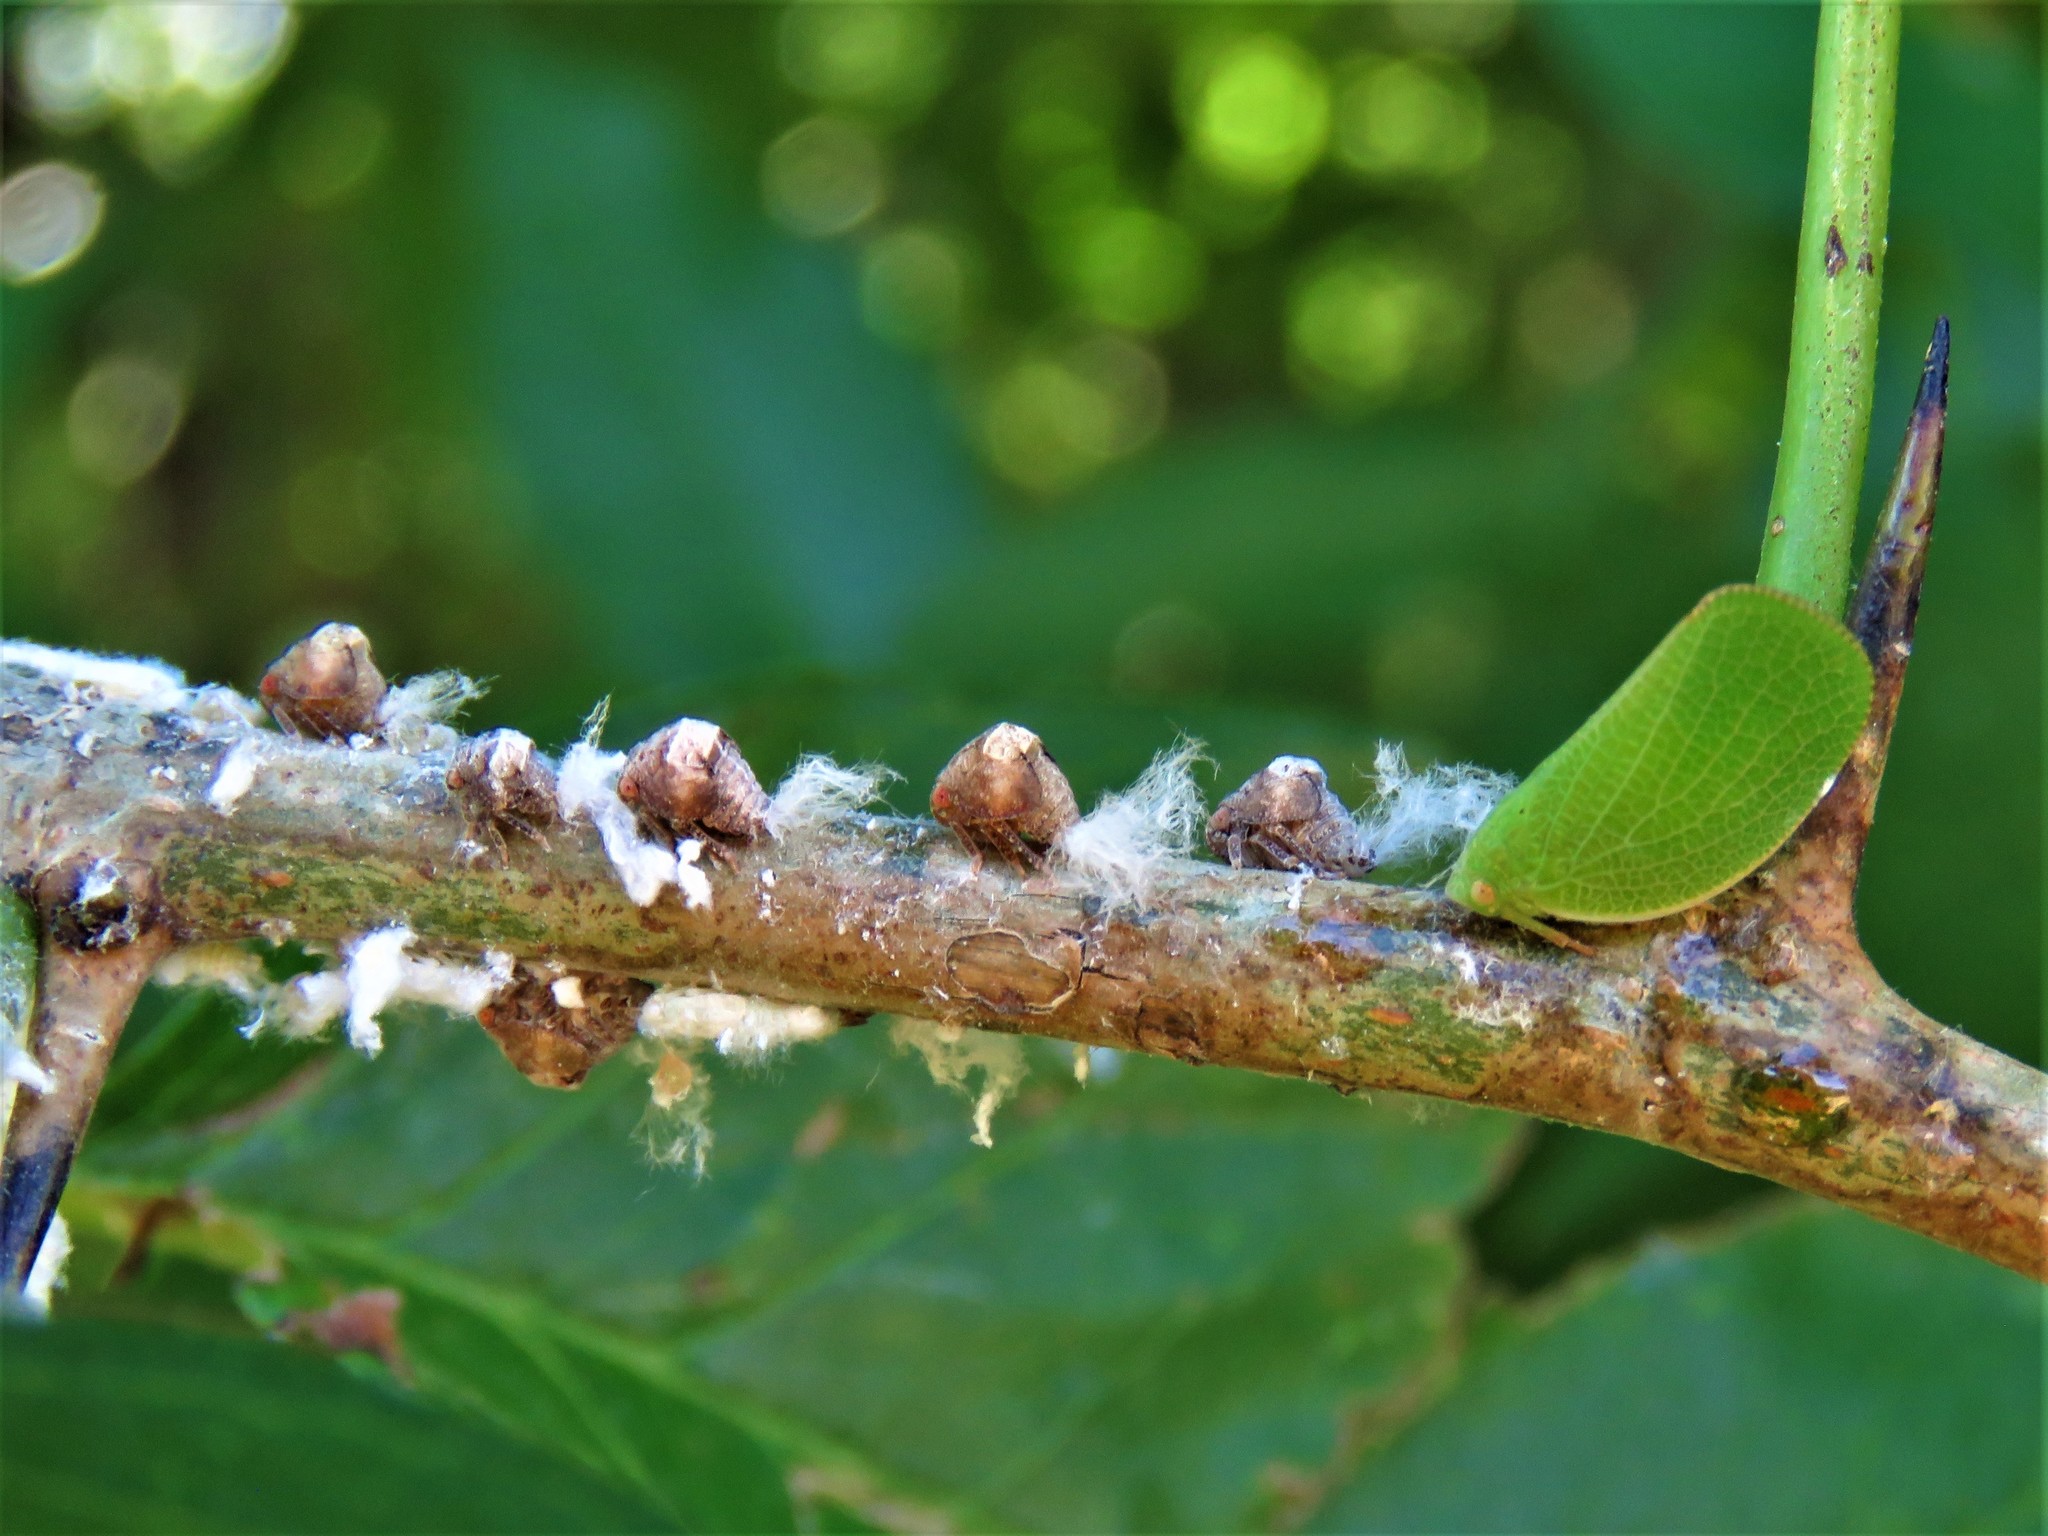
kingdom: Animalia
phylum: Arthropoda
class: Insecta
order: Hemiptera
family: Acanaloniidae
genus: Acanalonia
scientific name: Acanalonia conica
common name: Green cone-headed planthopper
